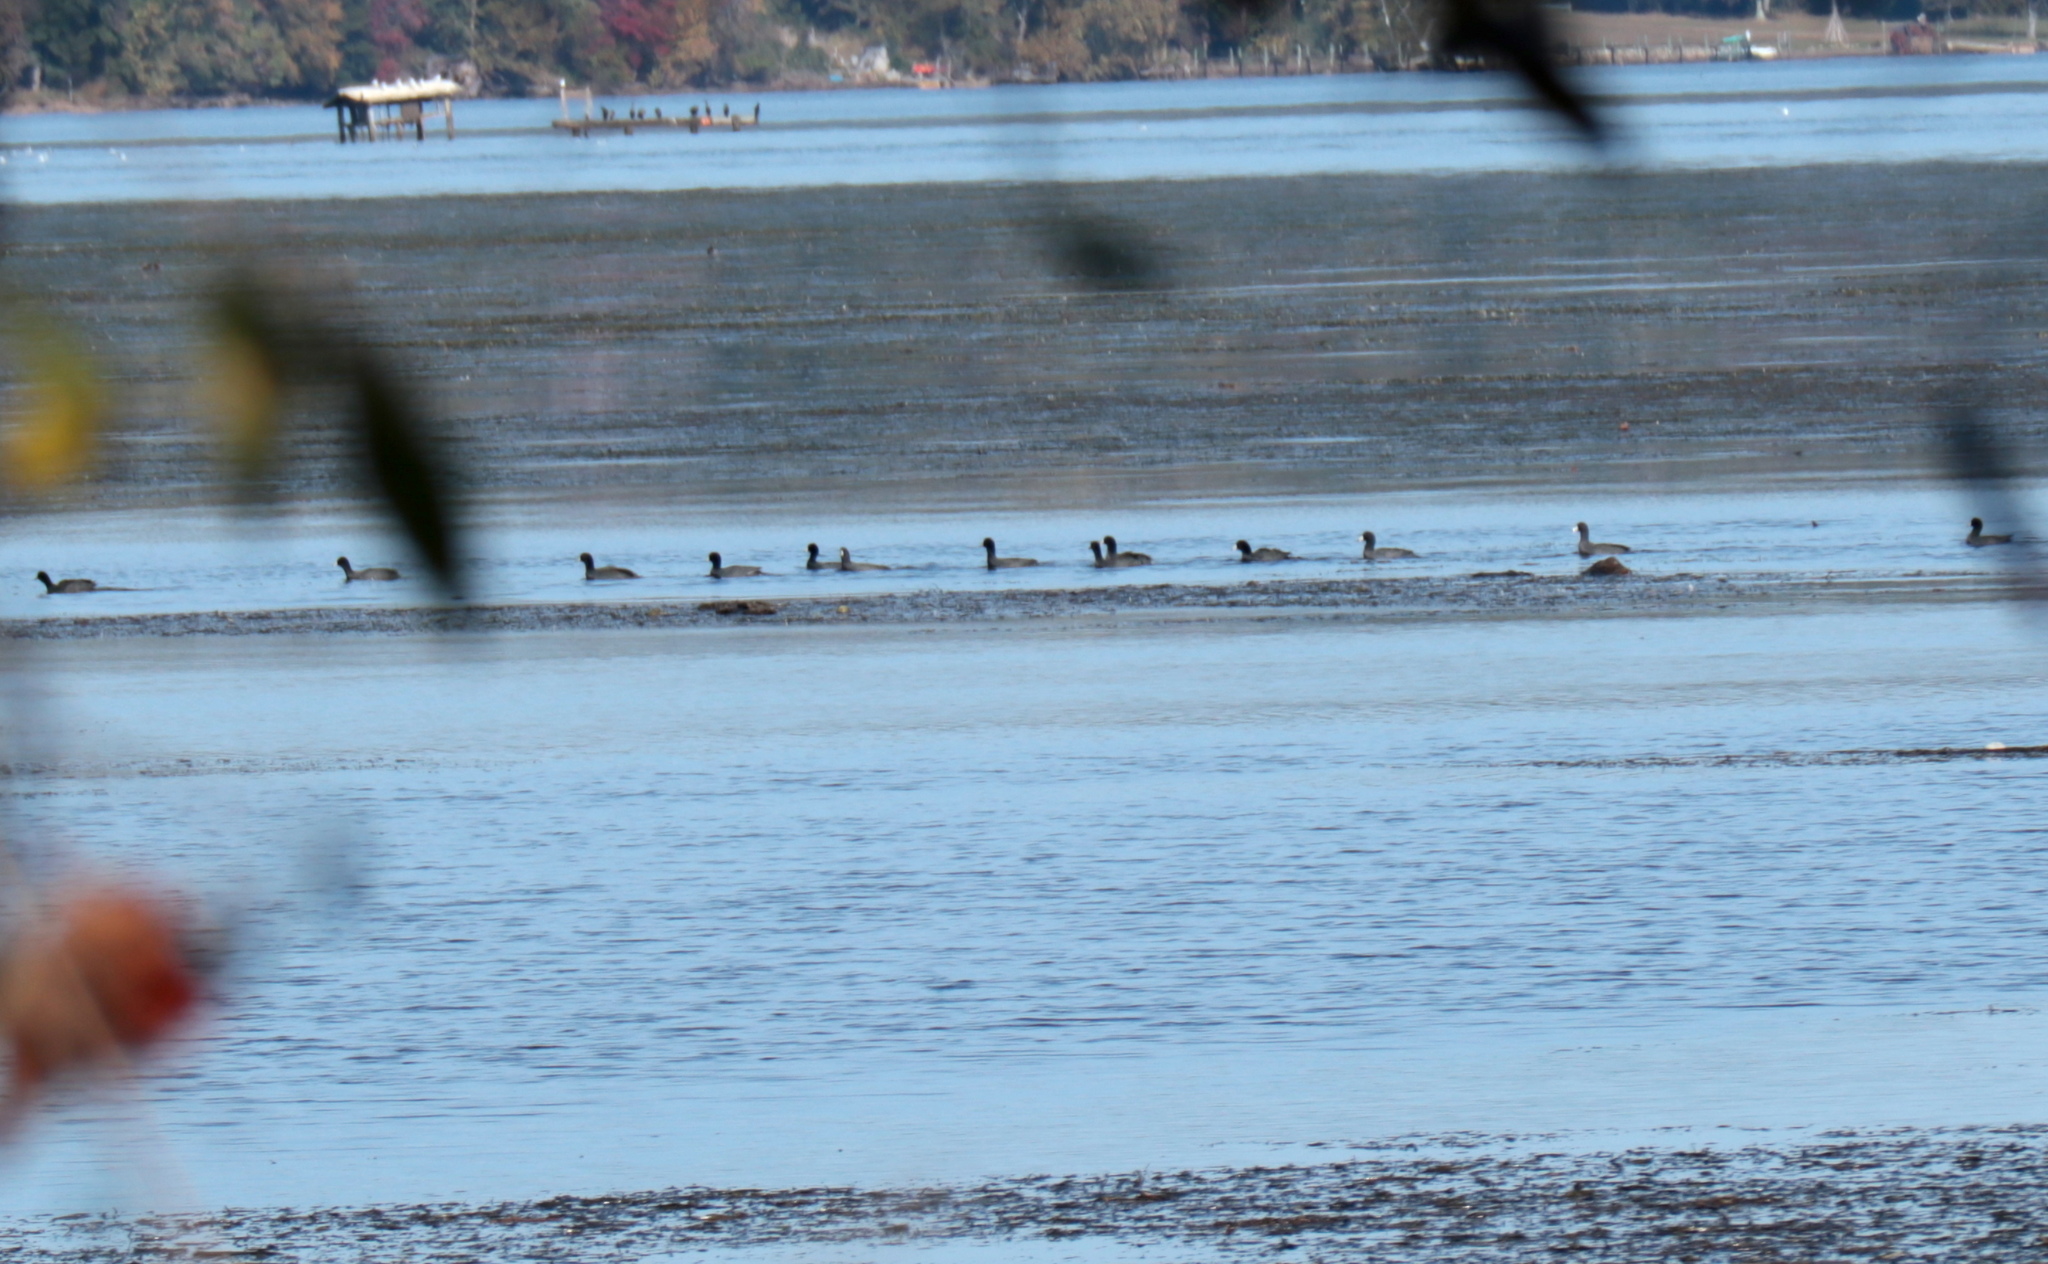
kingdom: Animalia
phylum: Chordata
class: Aves
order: Gruiformes
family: Rallidae
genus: Fulica
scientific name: Fulica americana
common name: American coot
